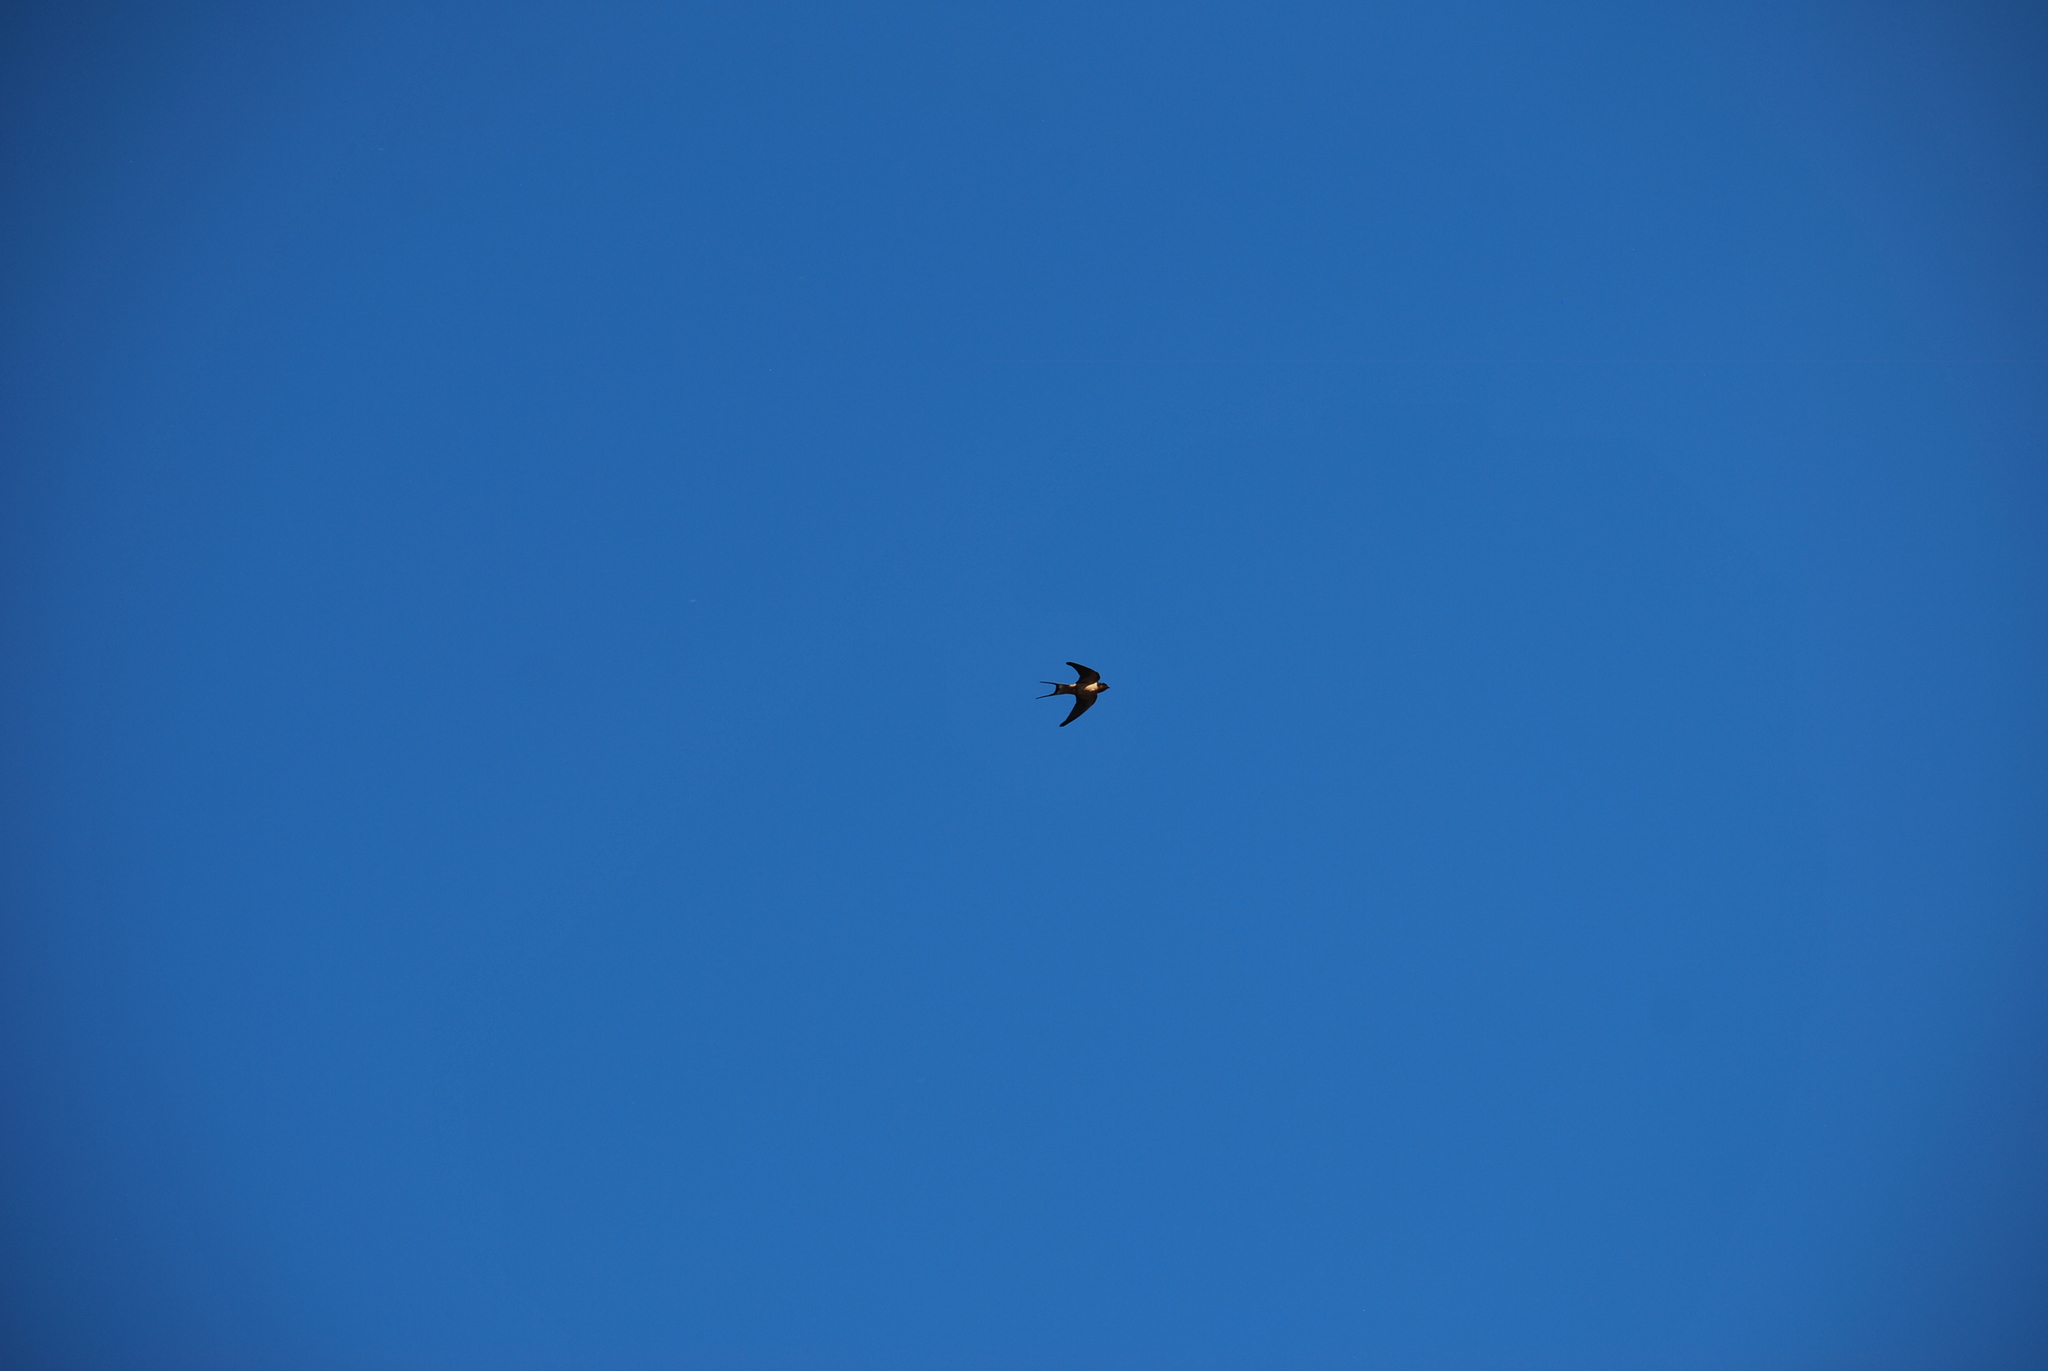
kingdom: Animalia
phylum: Chordata
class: Aves
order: Passeriformes
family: Hirundinidae
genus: Hirundo
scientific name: Hirundo rustica
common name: Barn swallow
